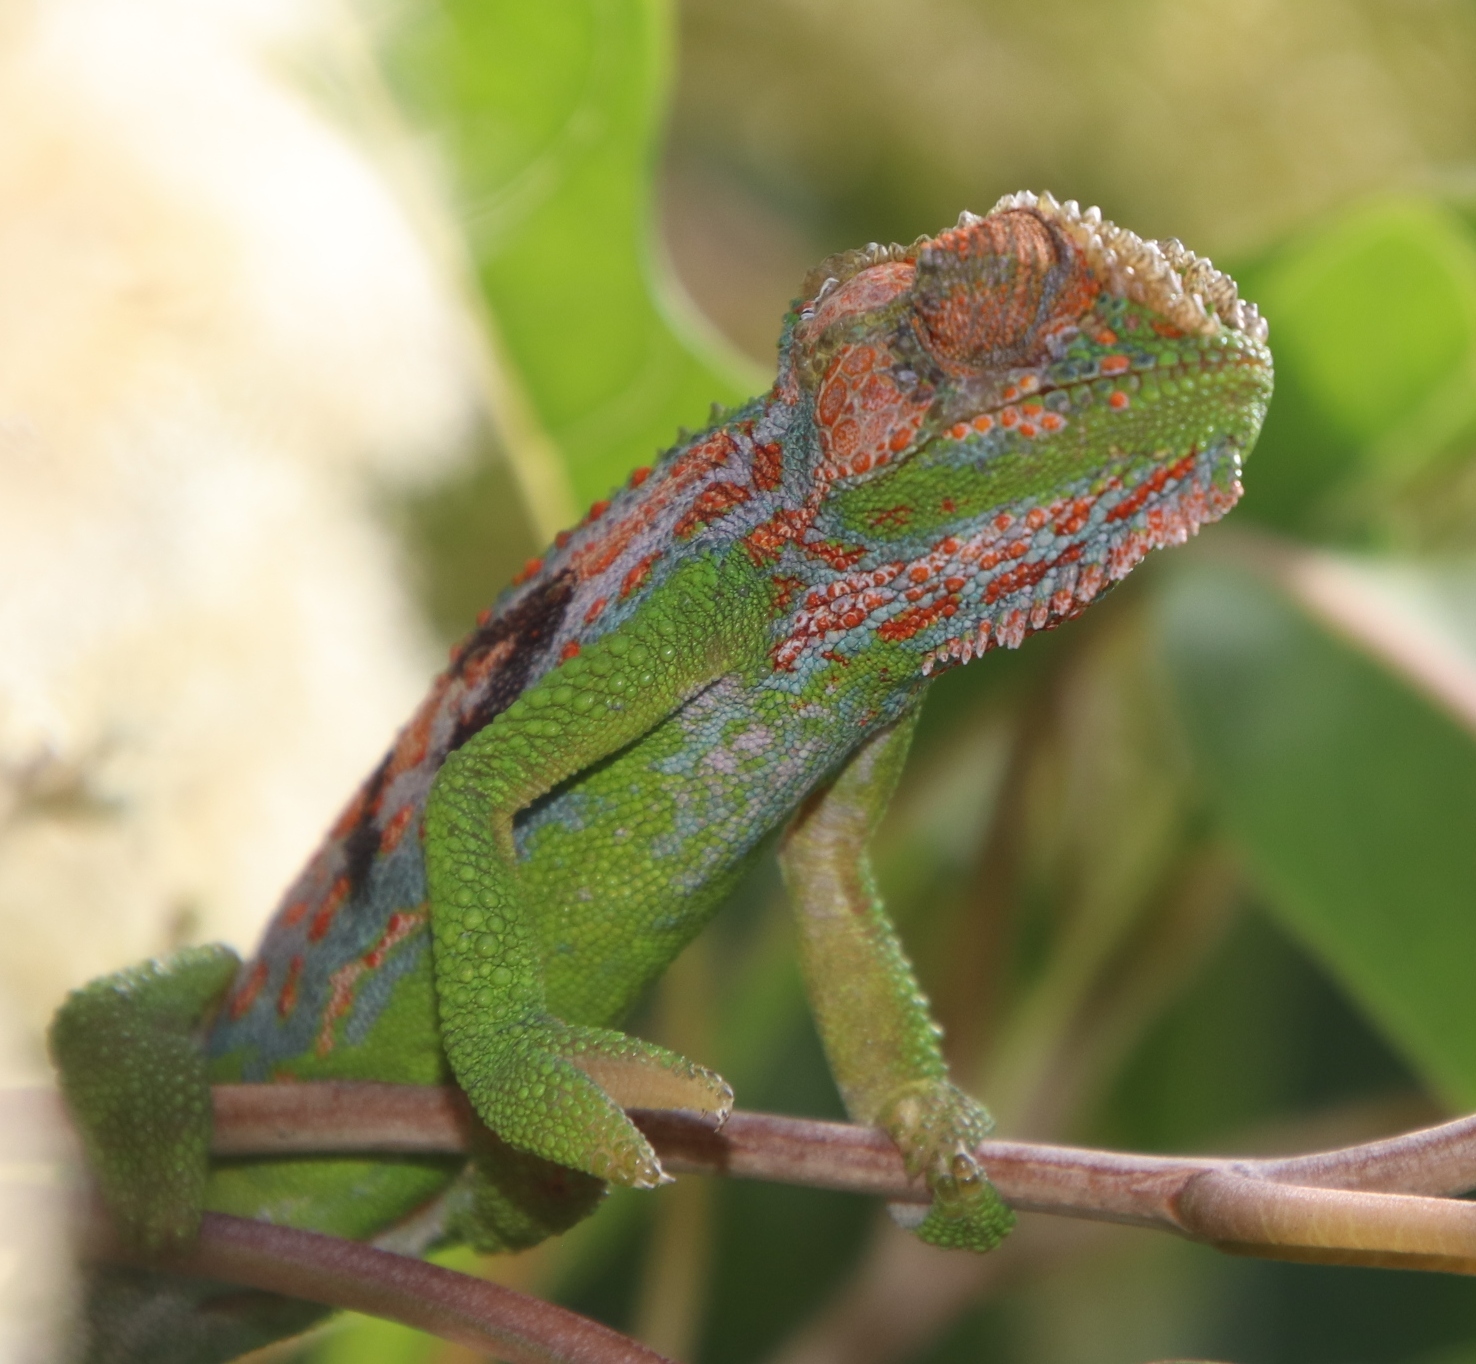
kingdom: Animalia
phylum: Chordata
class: Squamata
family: Chamaeleonidae
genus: Bradypodion
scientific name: Bradypodion pumilum
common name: Cape dwarf chameleon
